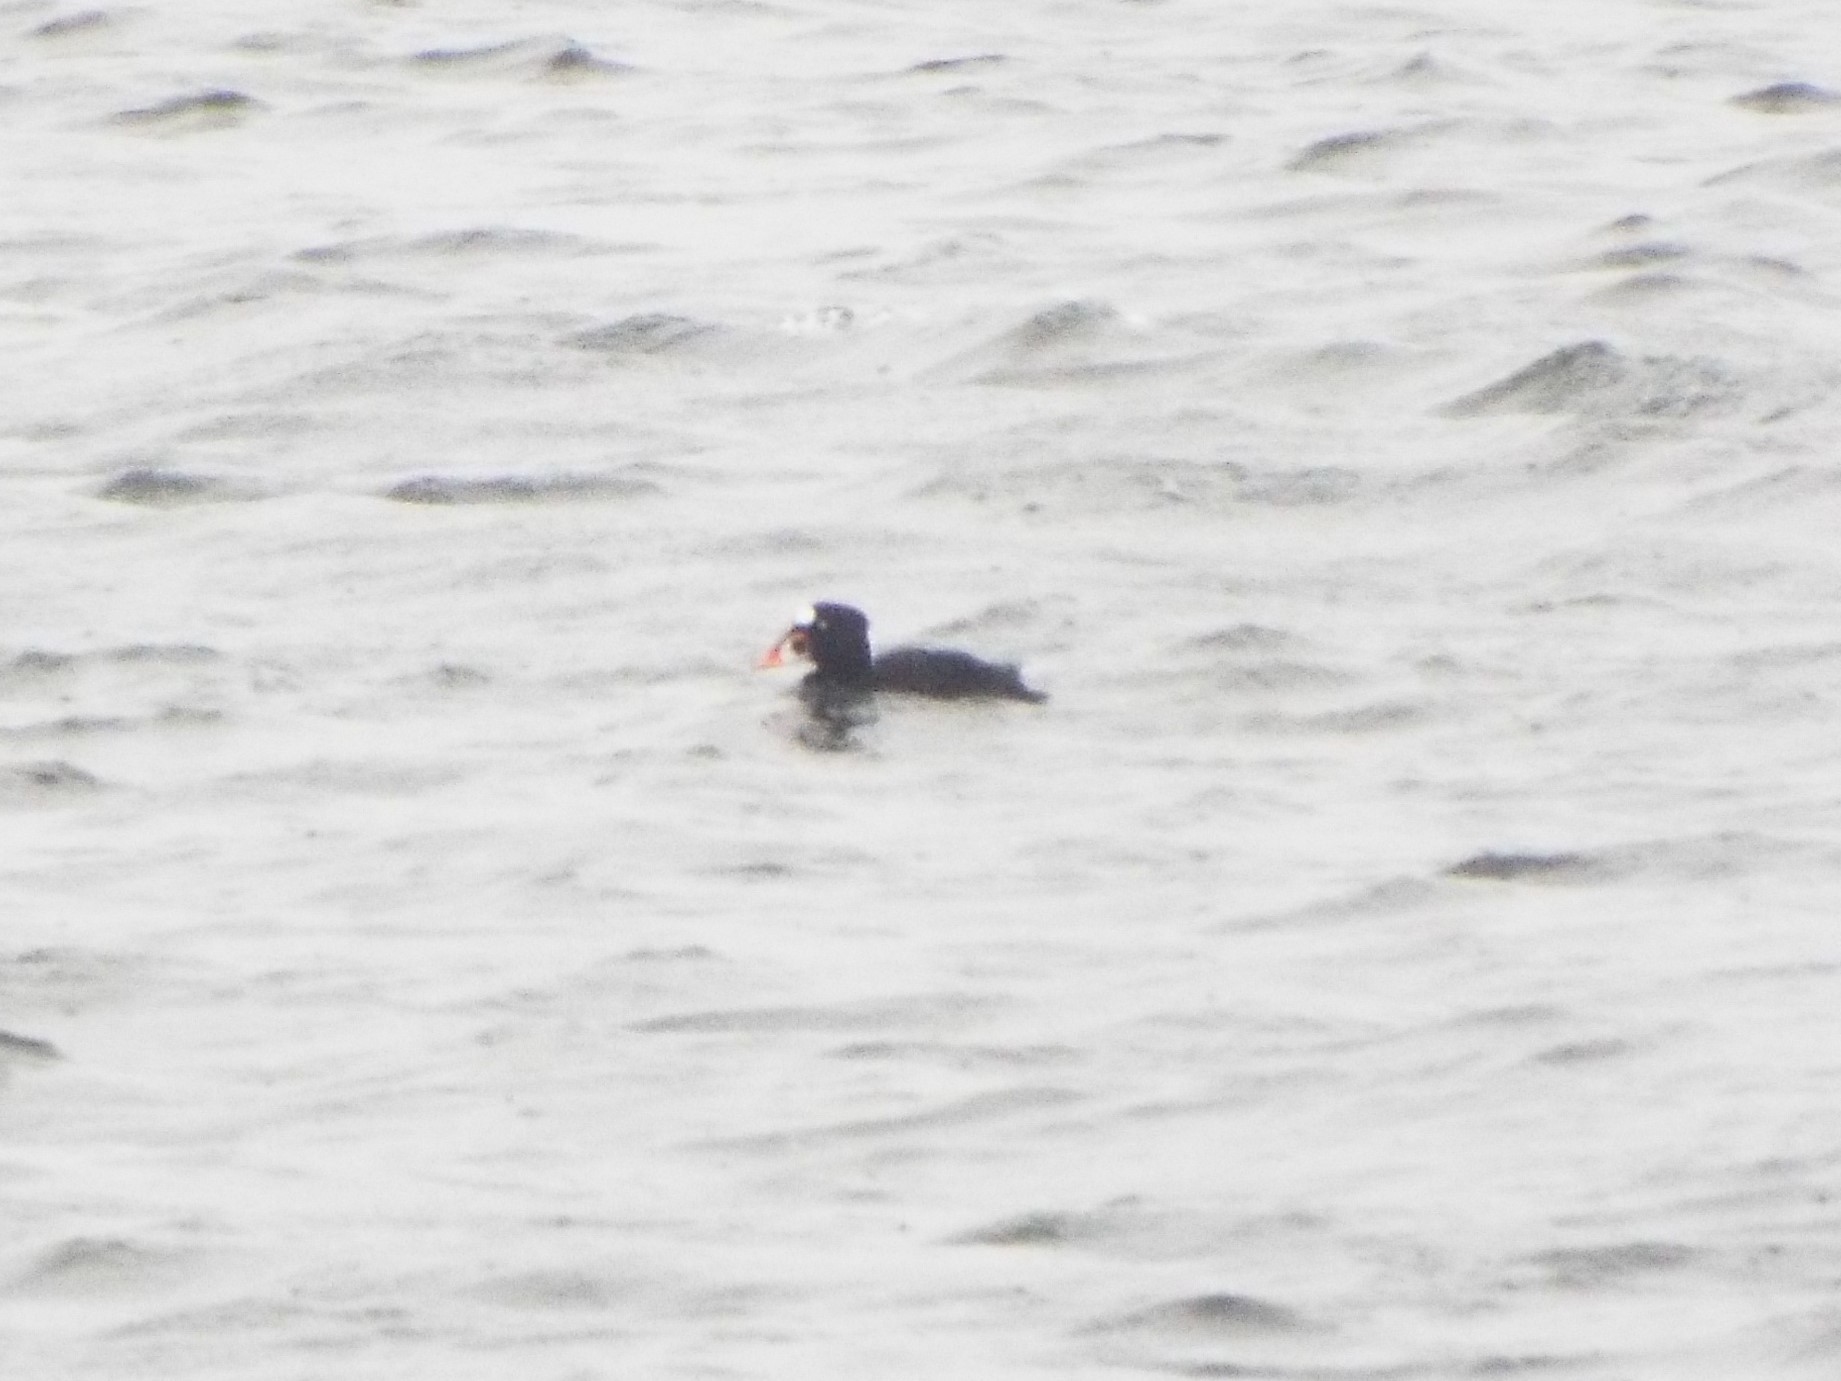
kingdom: Animalia
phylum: Chordata
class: Aves
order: Anseriformes
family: Anatidae
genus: Melanitta
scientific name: Melanitta perspicillata
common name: Surf scoter
